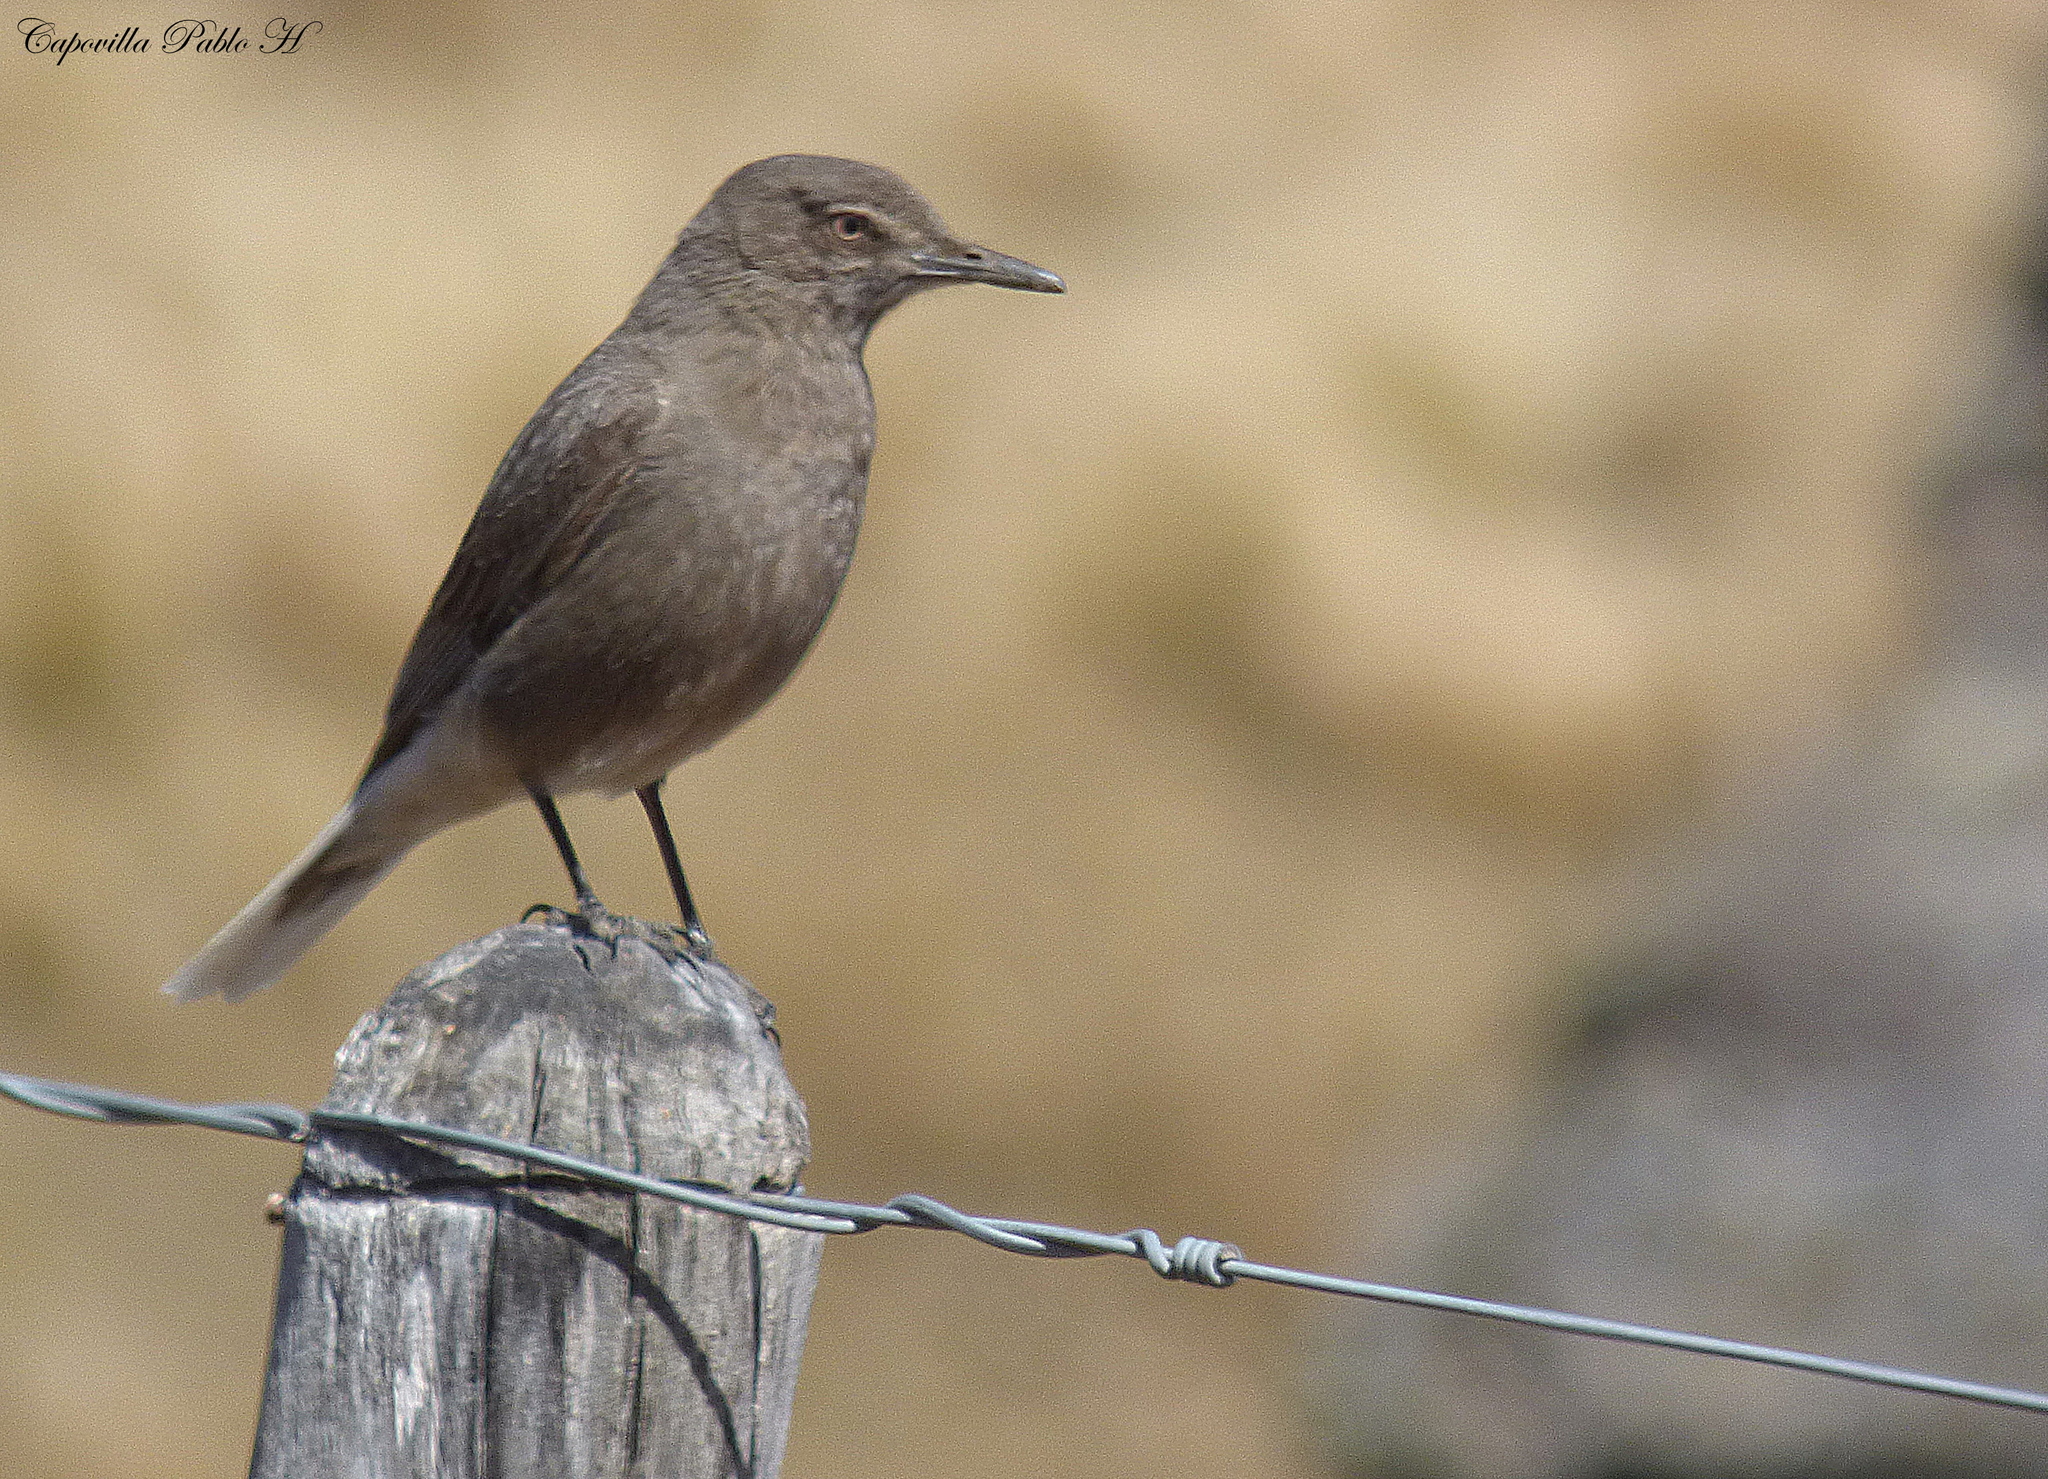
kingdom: Animalia
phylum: Chordata
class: Aves
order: Passeriformes
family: Tyrannidae
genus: Agriornis
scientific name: Agriornis montanus
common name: Black-billed shrike-tyrant
